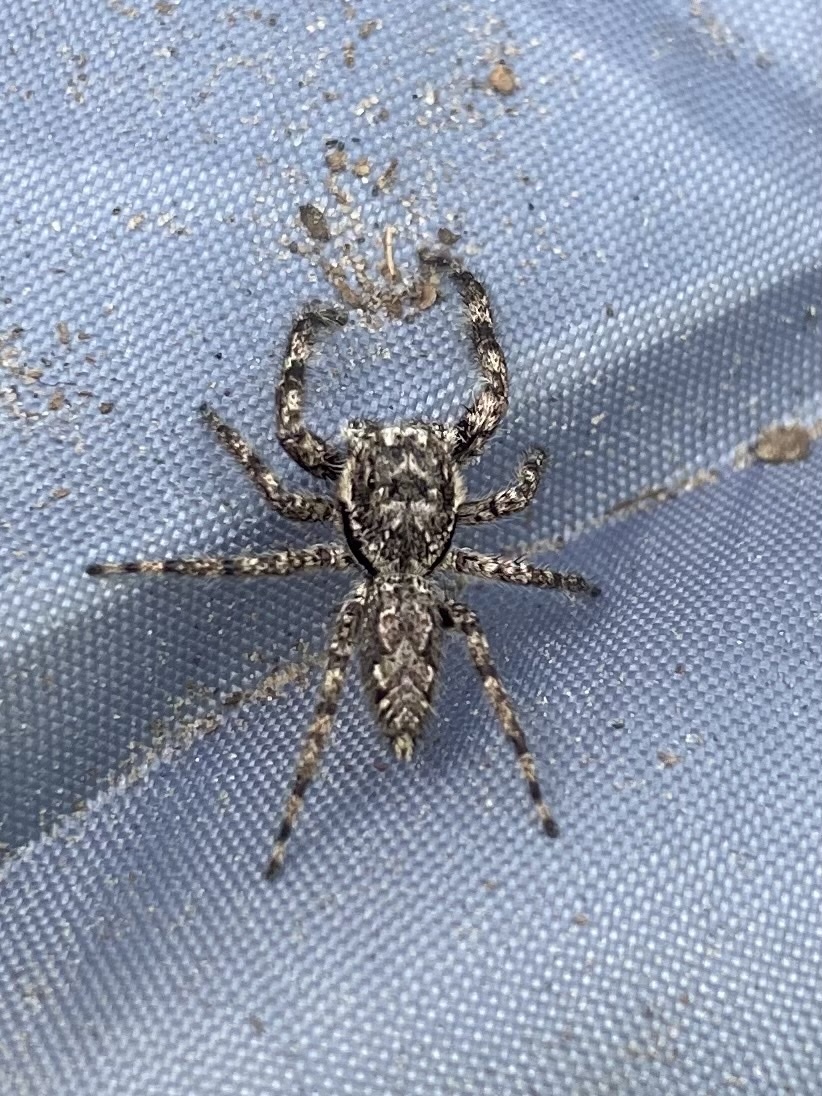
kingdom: Animalia
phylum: Arthropoda
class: Arachnida
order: Araneae
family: Salticidae
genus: Platycryptus
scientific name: Platycryptus undatus
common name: Tan jumping spider
